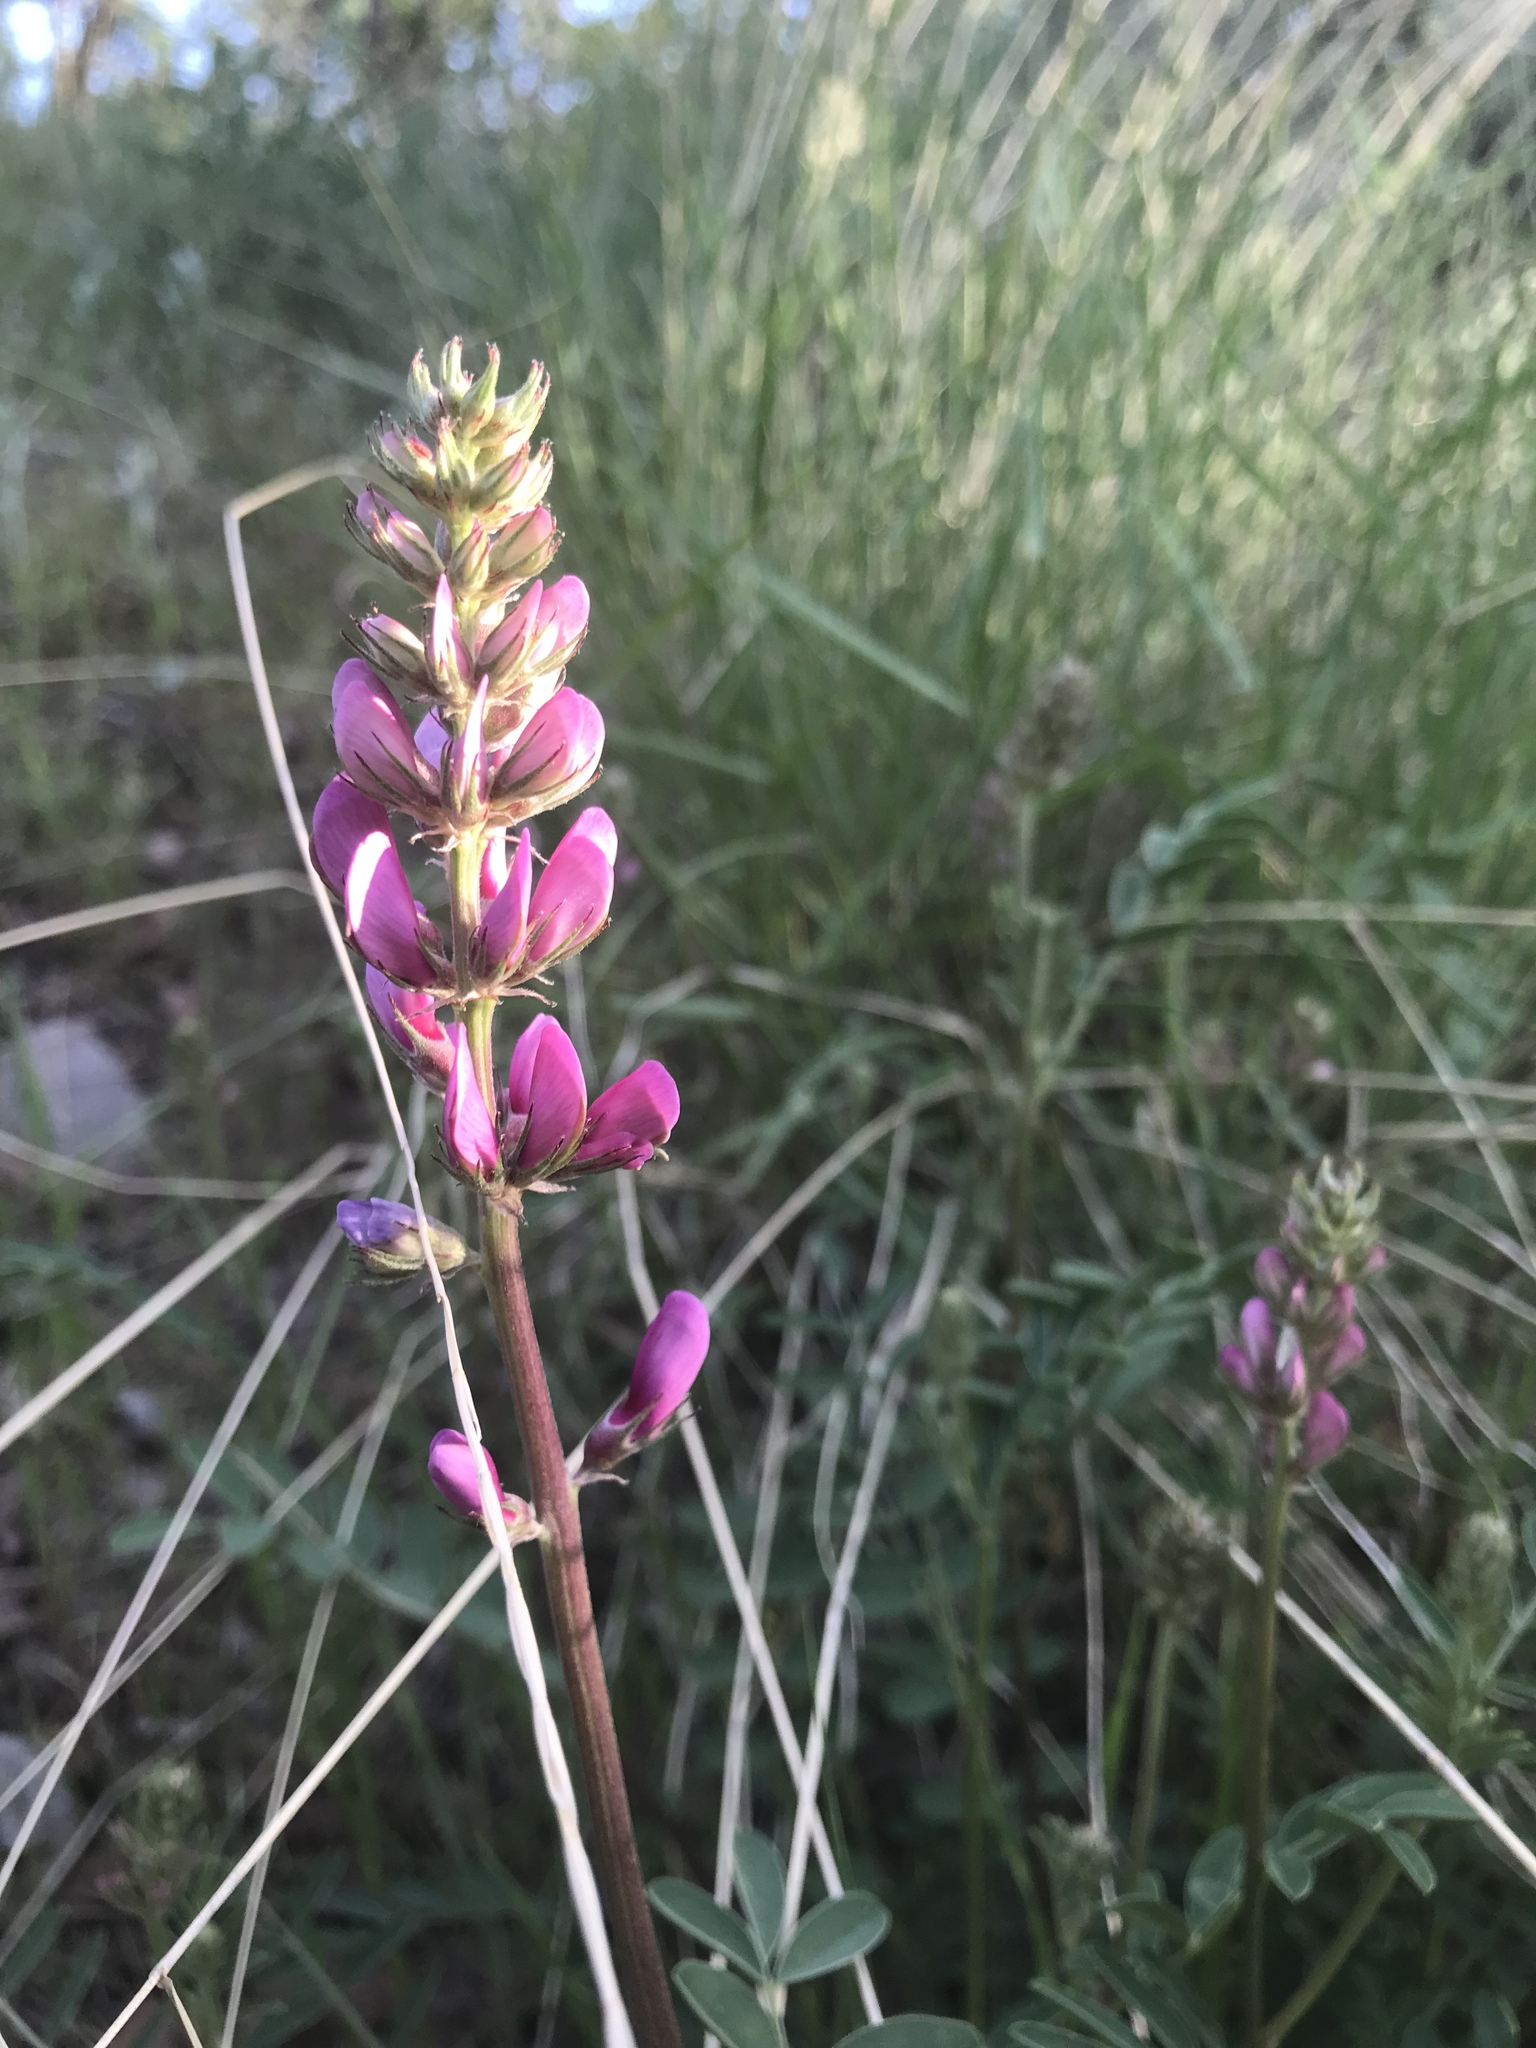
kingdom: Plantae
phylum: Tracheophyta
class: Magnoliopsida
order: Fabales
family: Fabaceae
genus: Hedysarum
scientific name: Hedysarum boreale
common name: Northern sweet-vetch
